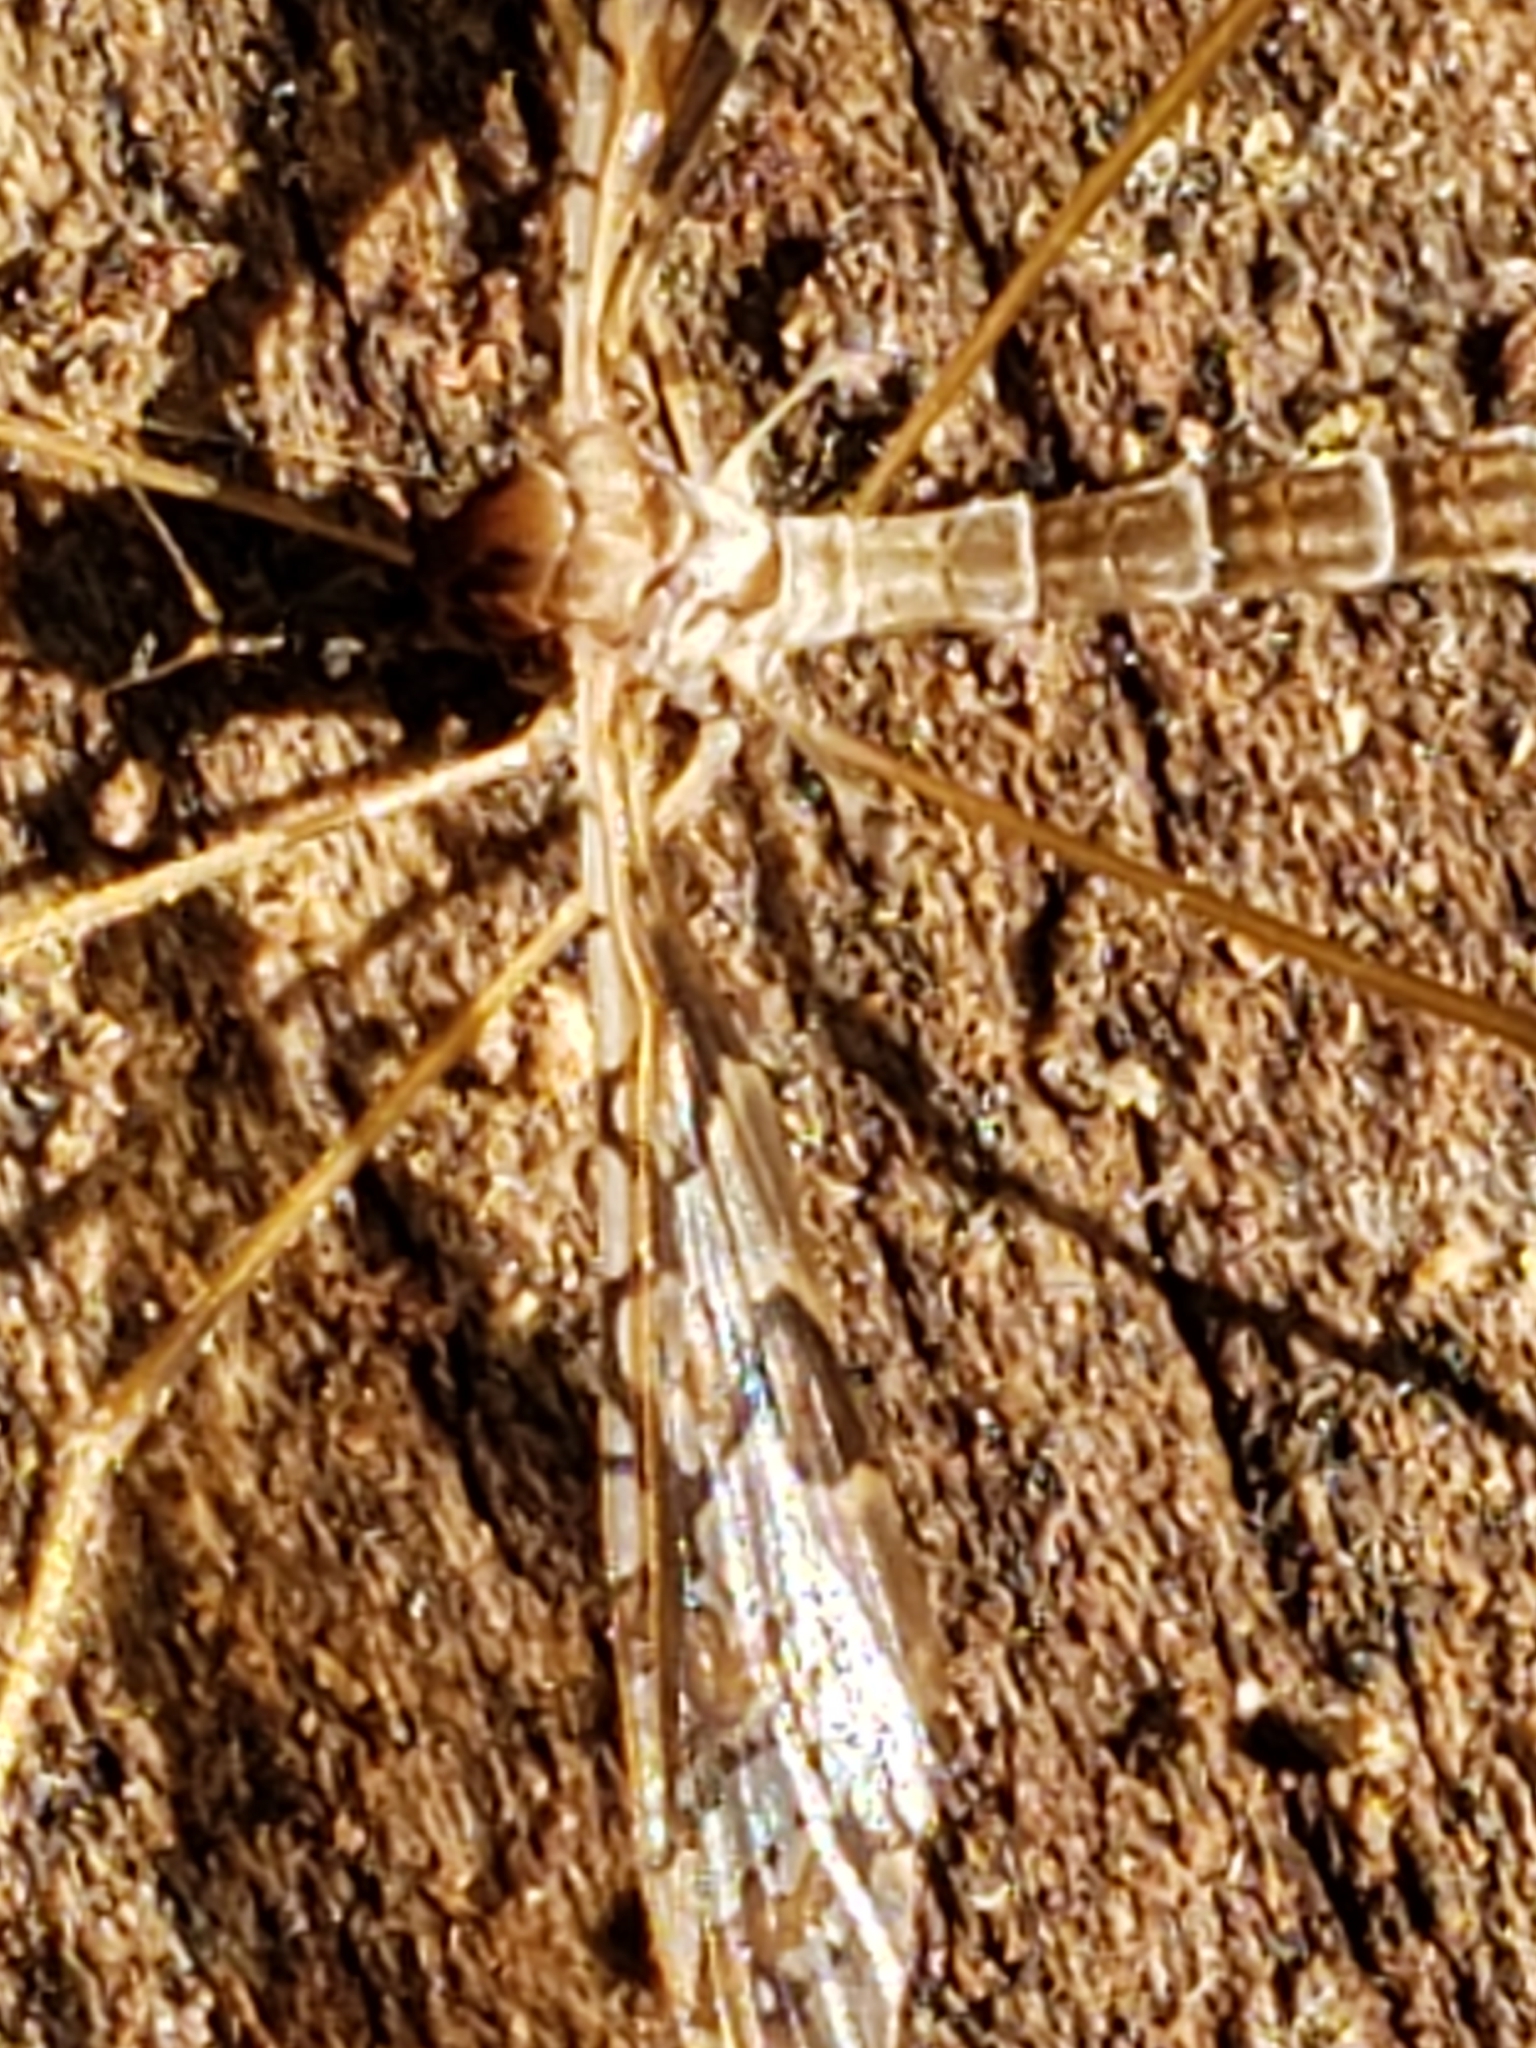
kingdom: Animalia
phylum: Arthropoda
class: Insecta
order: Diptera
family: Limoniidae
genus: Epiphragma
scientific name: Epiphragma solatrix
